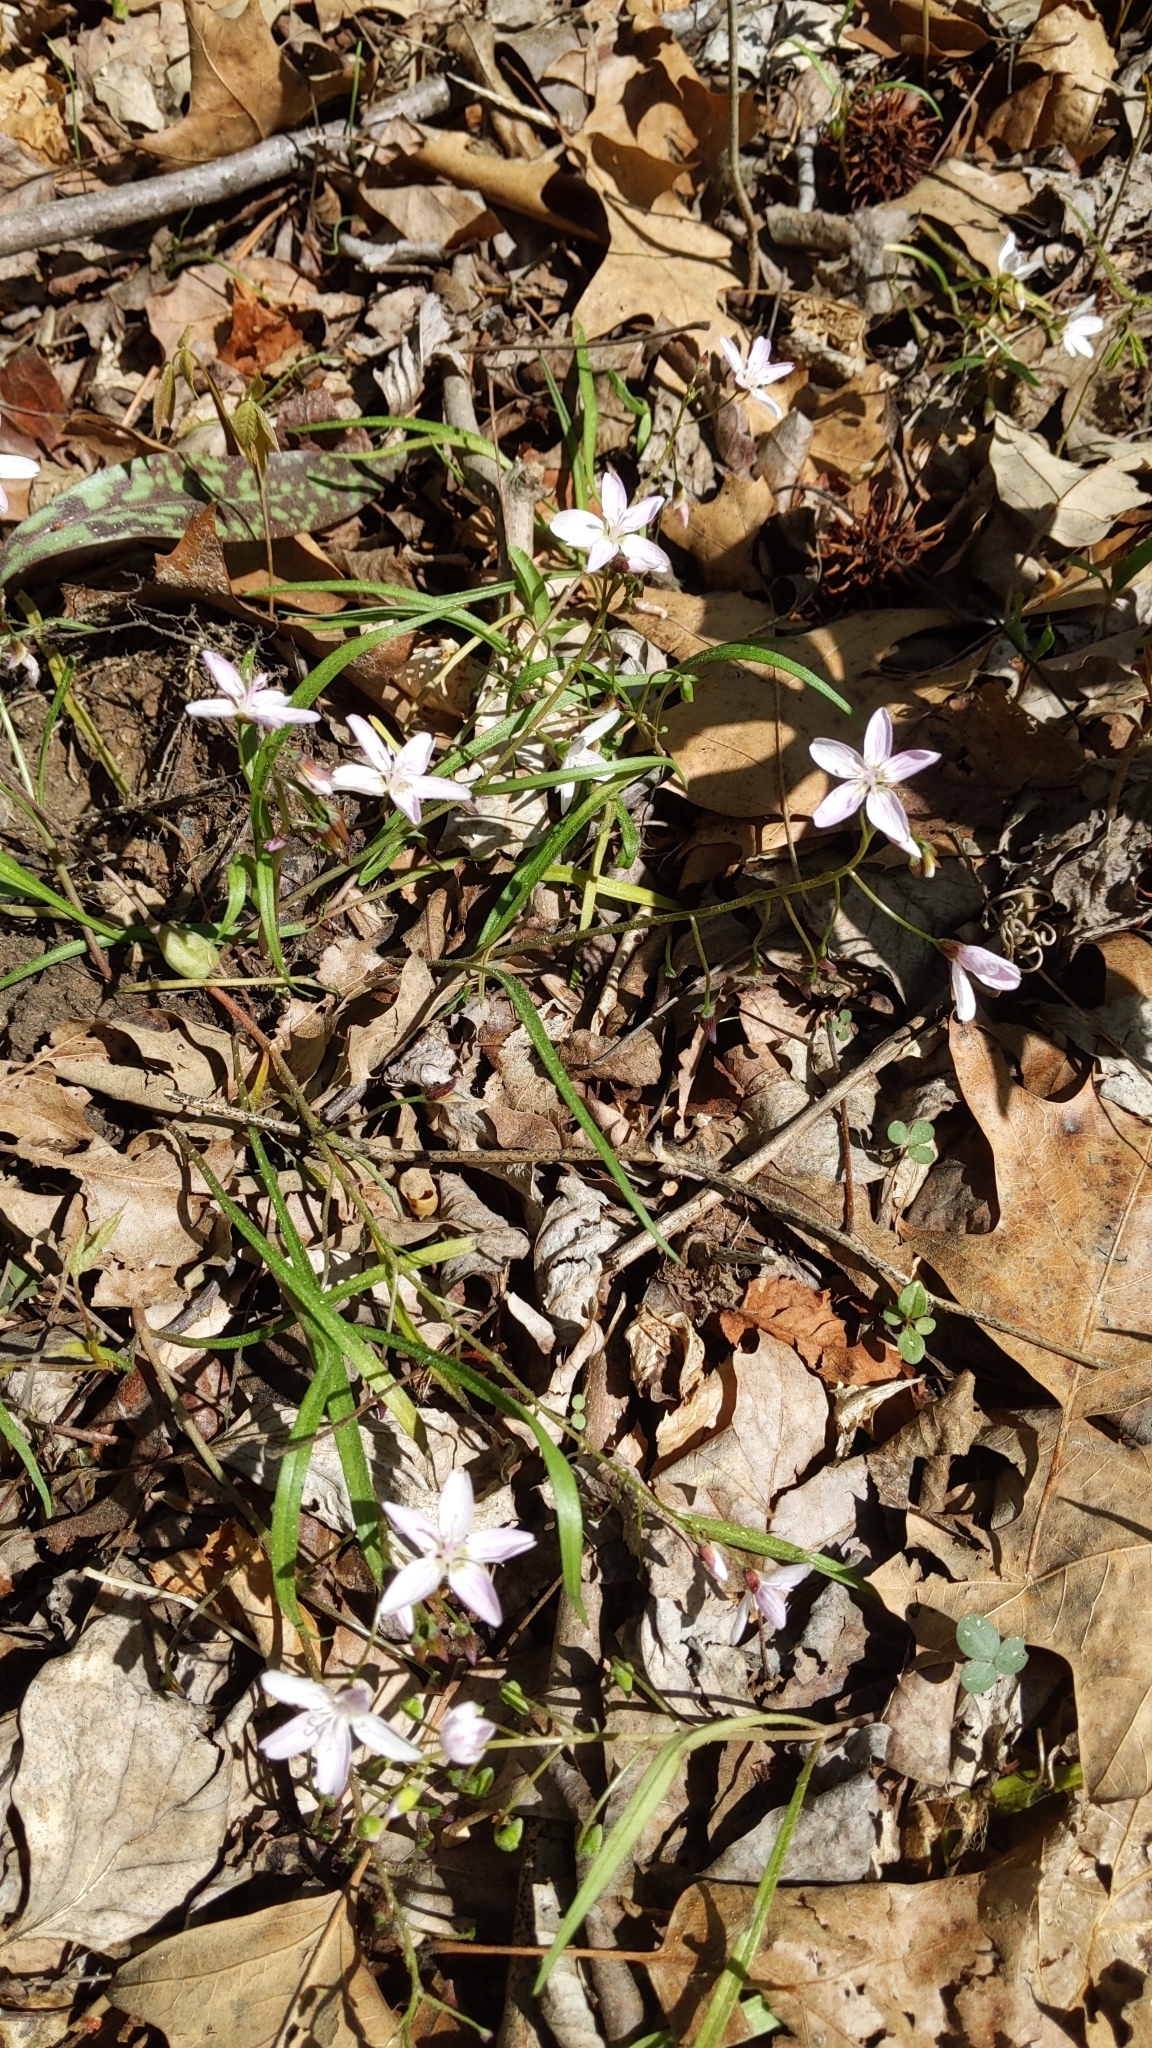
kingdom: Plantae
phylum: Tracheophyta
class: Magnoliopsida
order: Caryophyllales
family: Montiaceae
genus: Claytonia
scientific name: Claytonia virginica
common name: Virginia springbeauty
